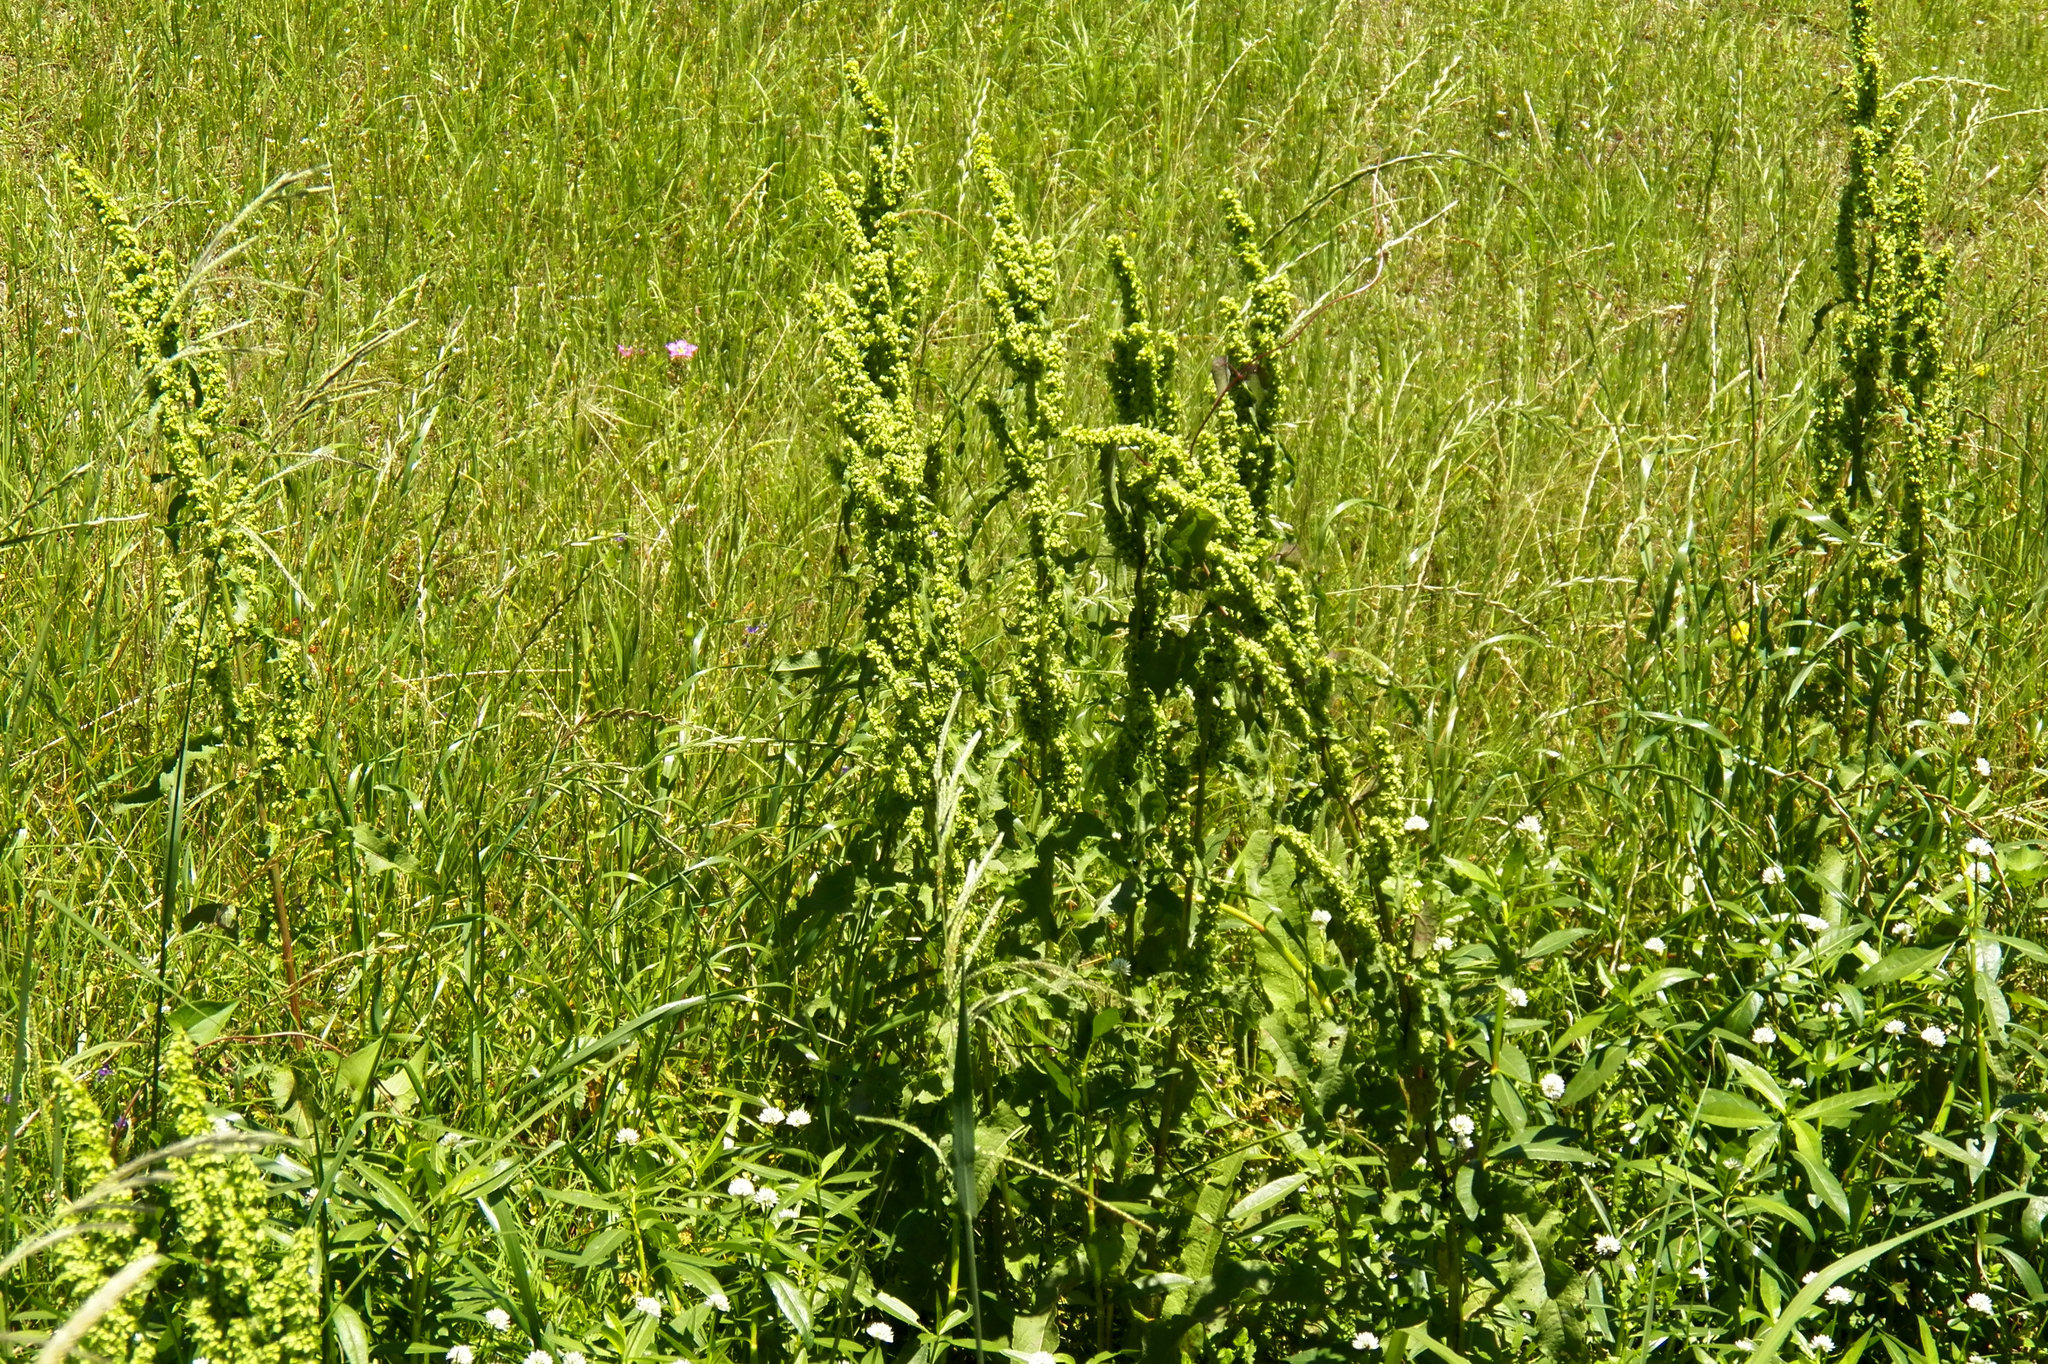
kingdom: Plantae
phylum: Tracheophyta
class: Magnoliopsida
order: Caryophyllales
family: Polygonaceae
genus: Rumex
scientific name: Rumex crispus
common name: Curled dock
